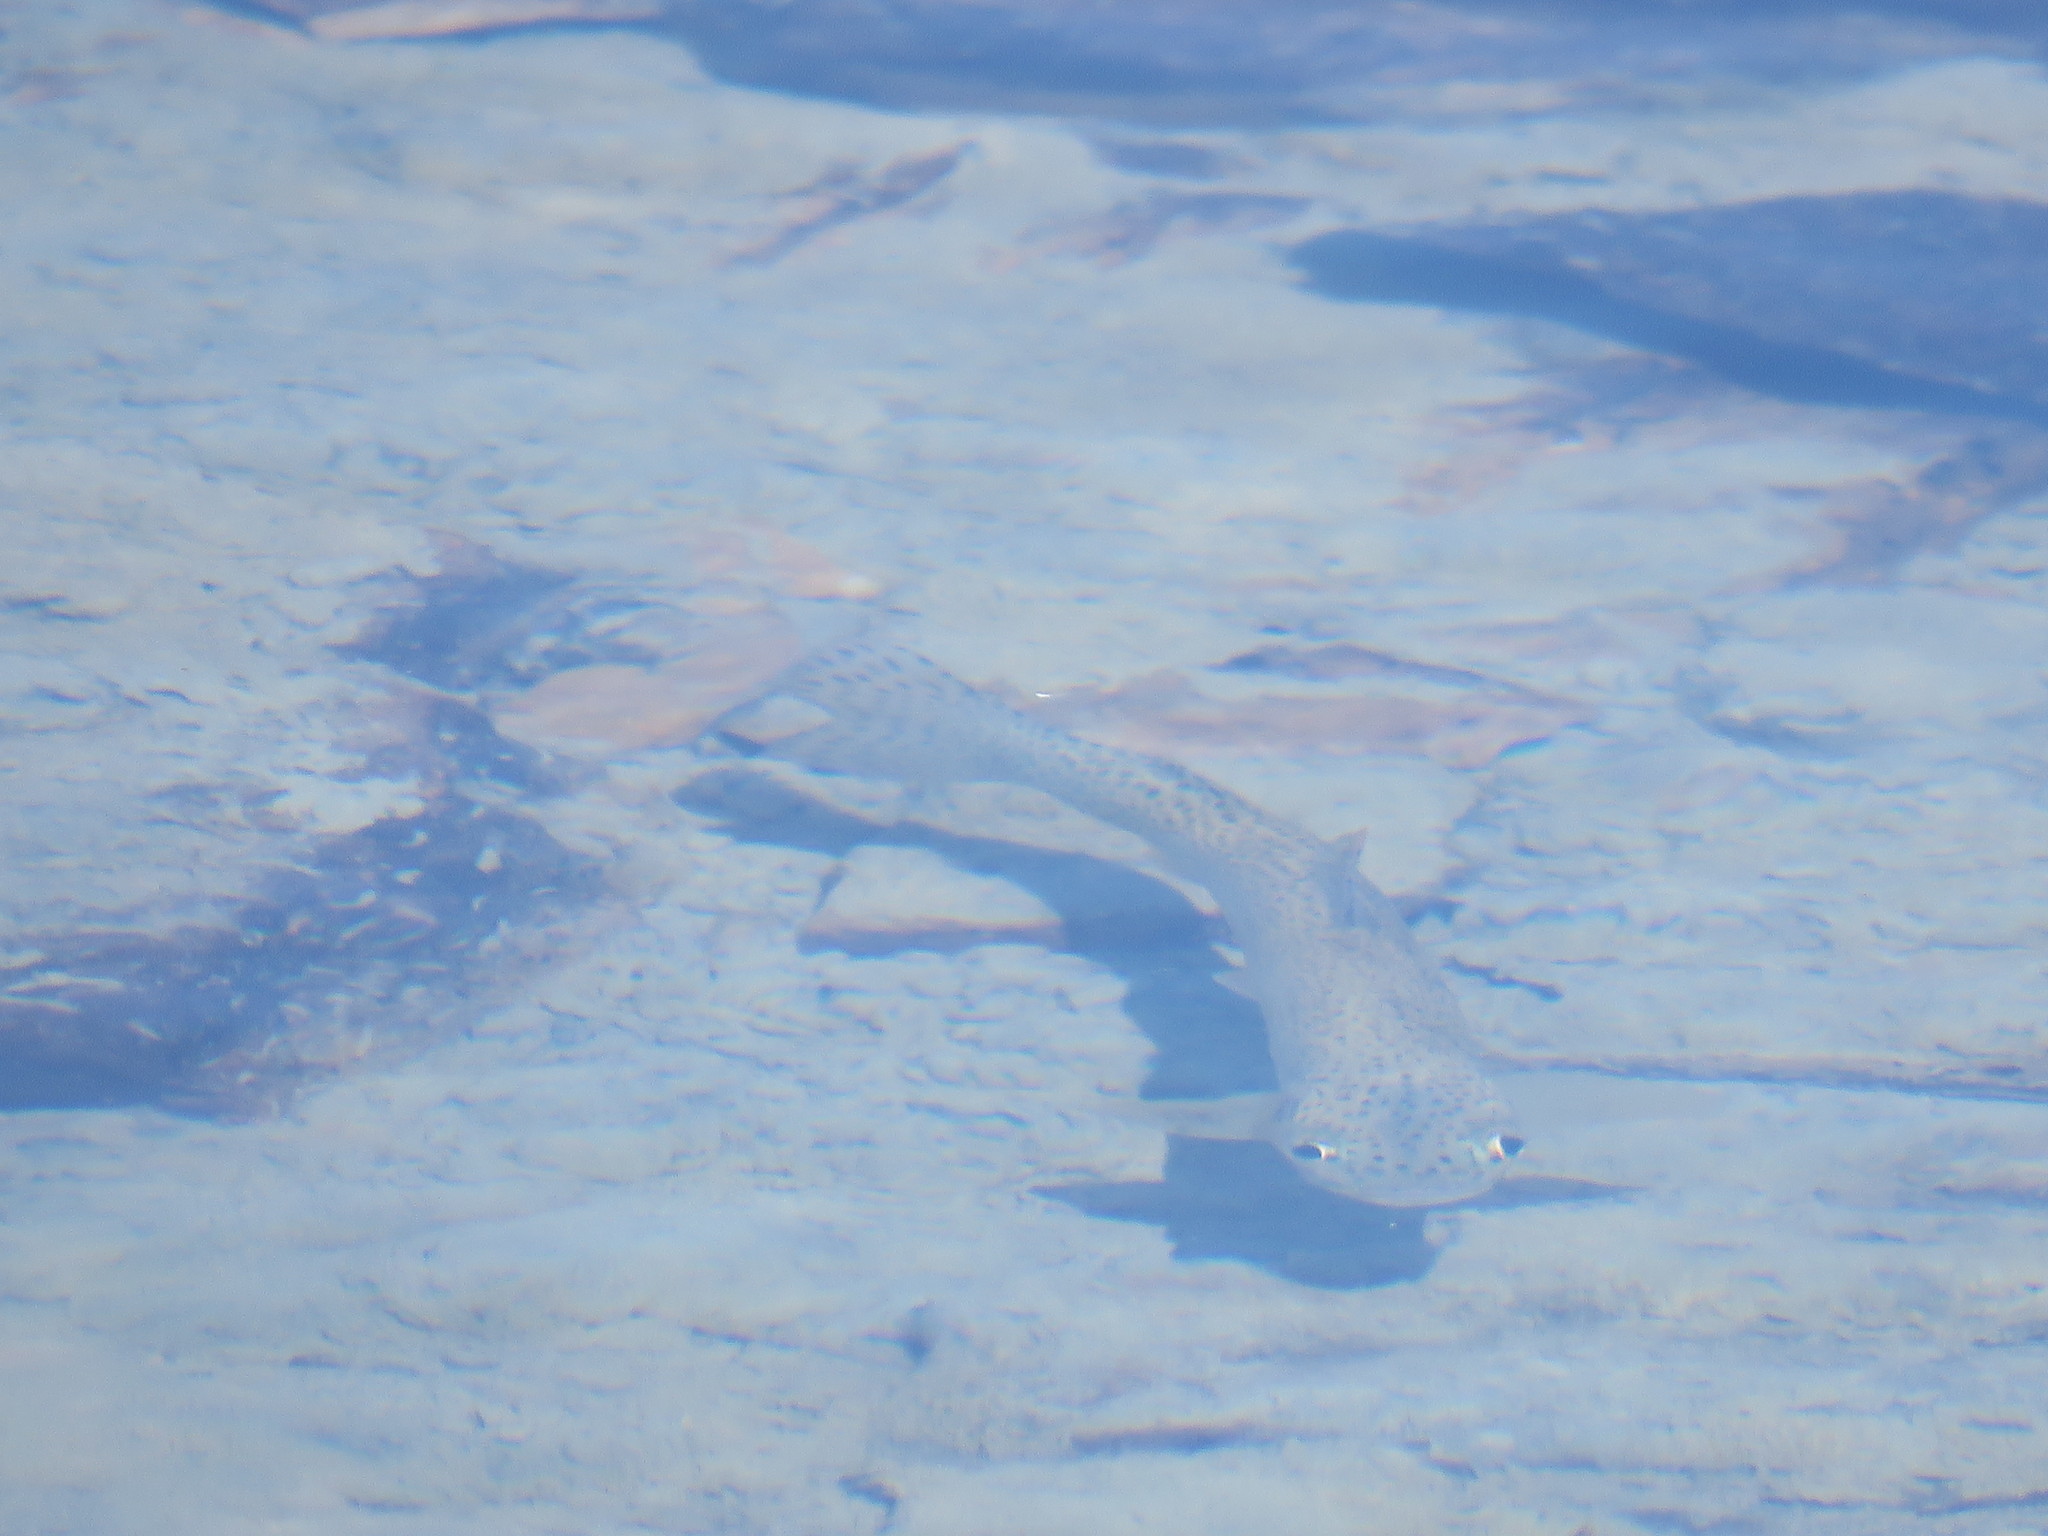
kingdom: Animalia
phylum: Chordata
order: Salmoniformes
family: Salmonidae
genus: Oncorhynchus
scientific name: Oncorhynchus
